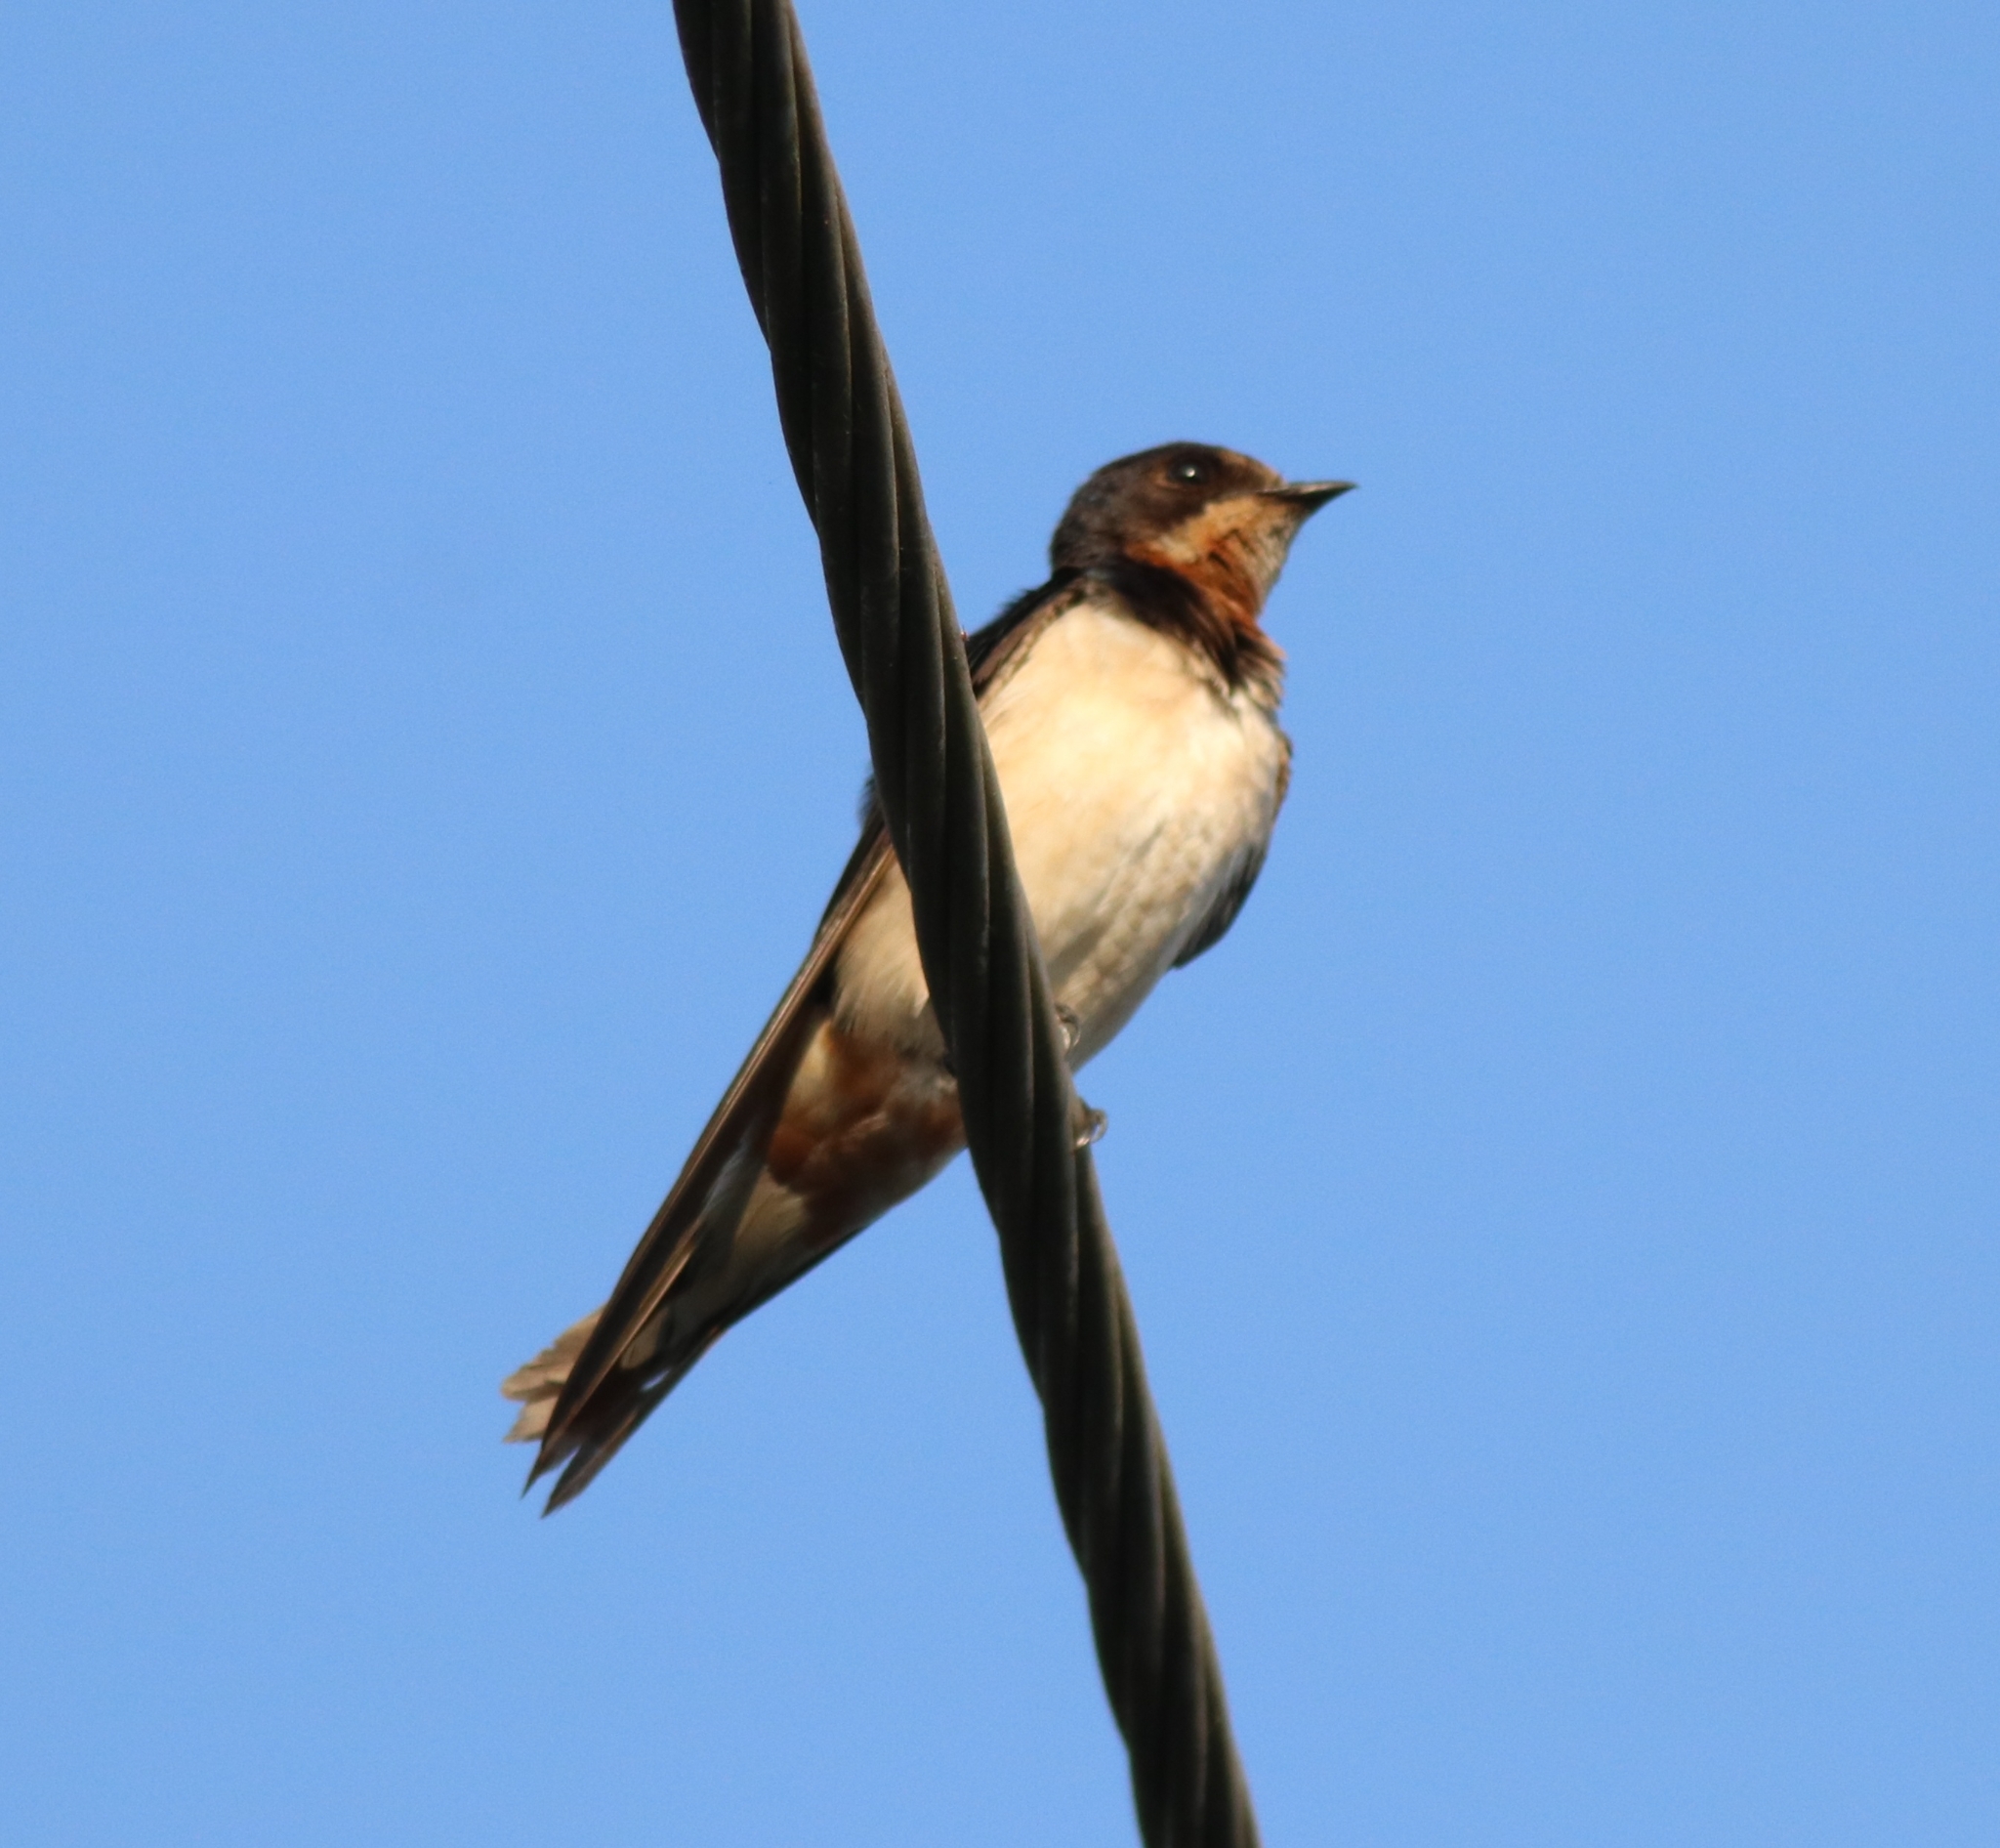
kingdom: Animalia
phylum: Chordata
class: Aves
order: Passeriformes
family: Hirundinidae
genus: Hirundo
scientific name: Hirundo rustica
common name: Barn swallow
